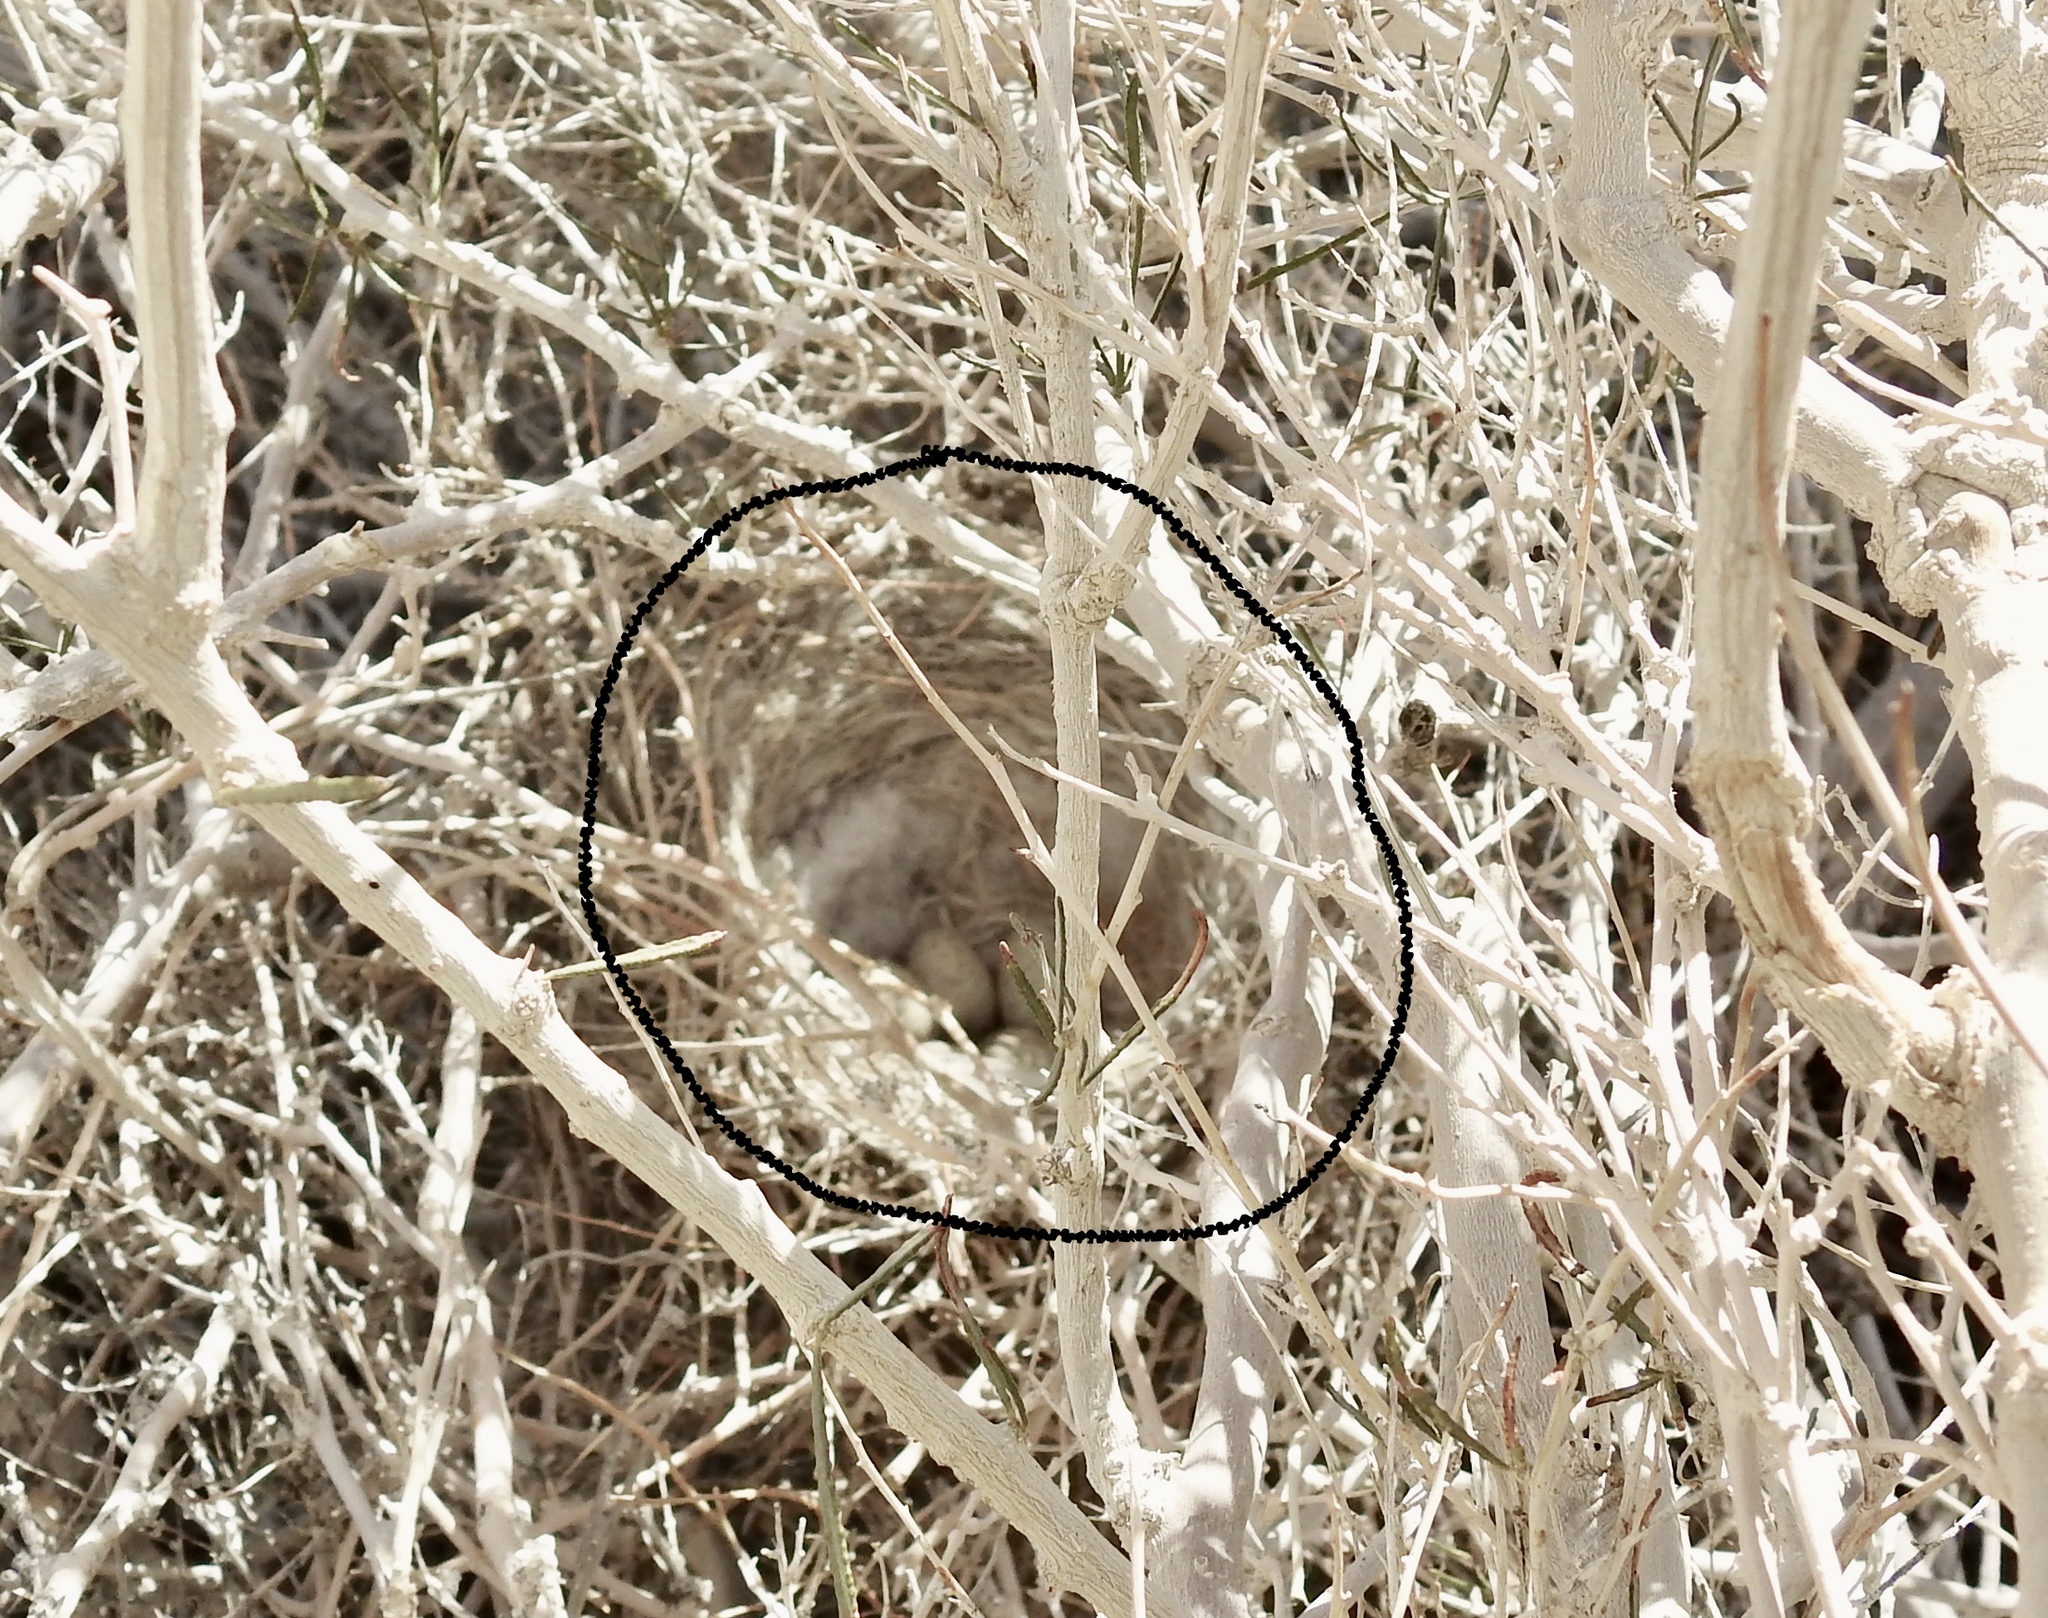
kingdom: Animalia
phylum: Chordata
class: Aves
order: Passeriformes
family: Laniidae
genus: Lanius
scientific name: Lanius ludovicianus
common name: Loggerhead shrike
